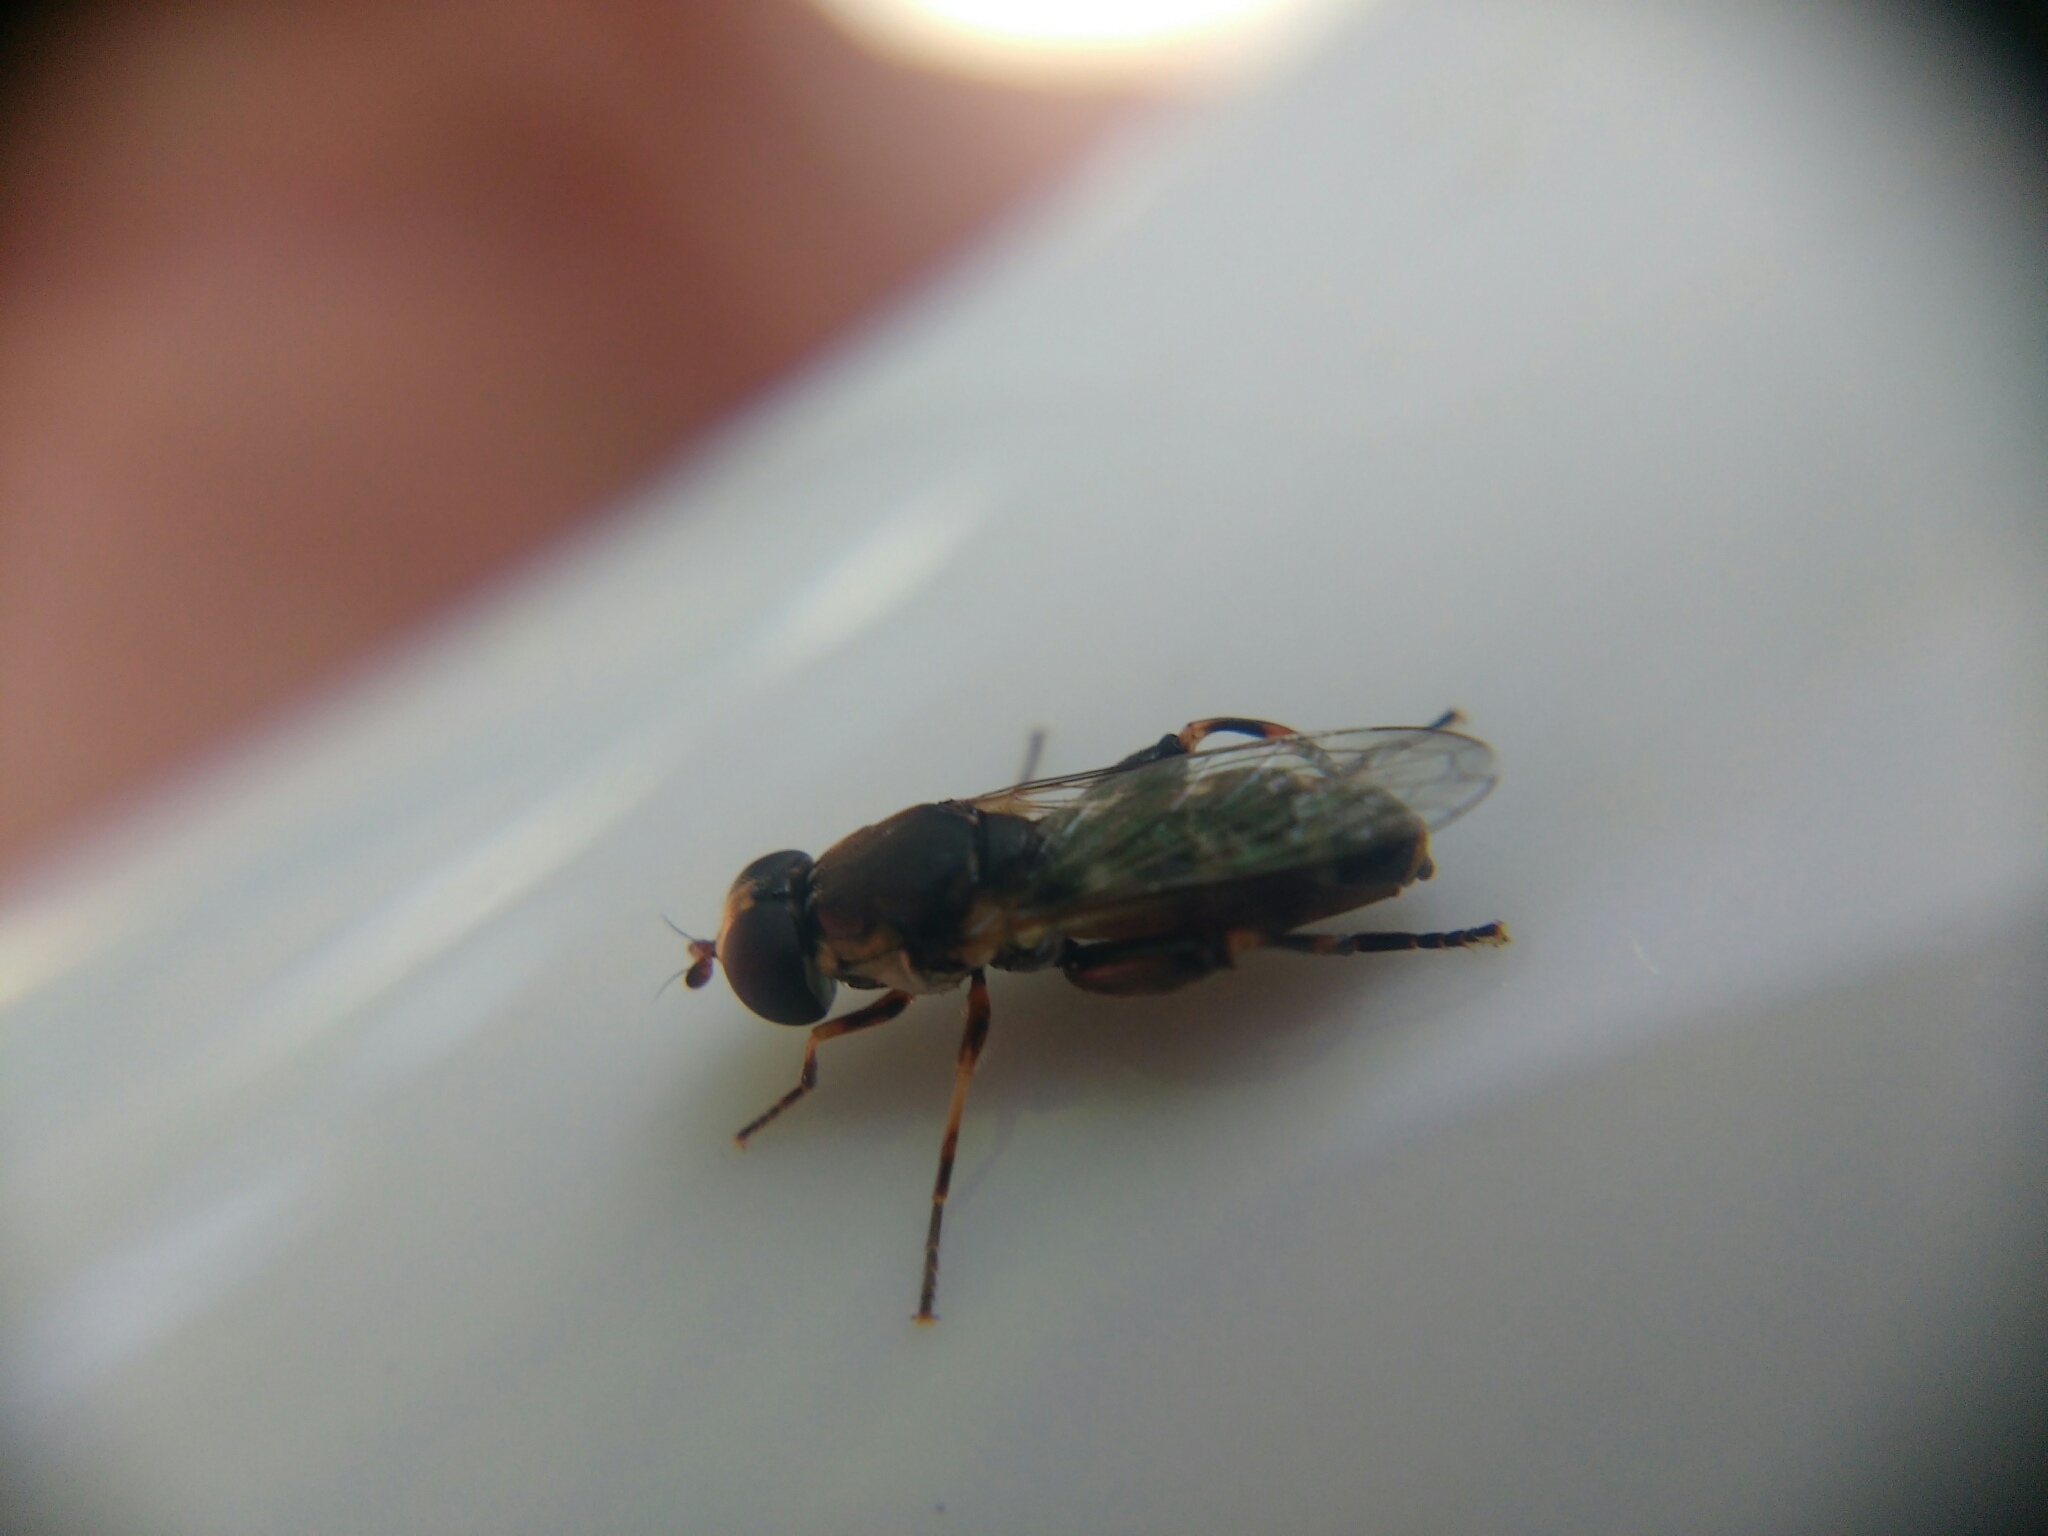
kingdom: Animalia
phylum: Arthropoda
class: Insecta
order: Diptera
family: Syrphidae
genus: Syritta
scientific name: Syritta pipiens
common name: Hover fly
